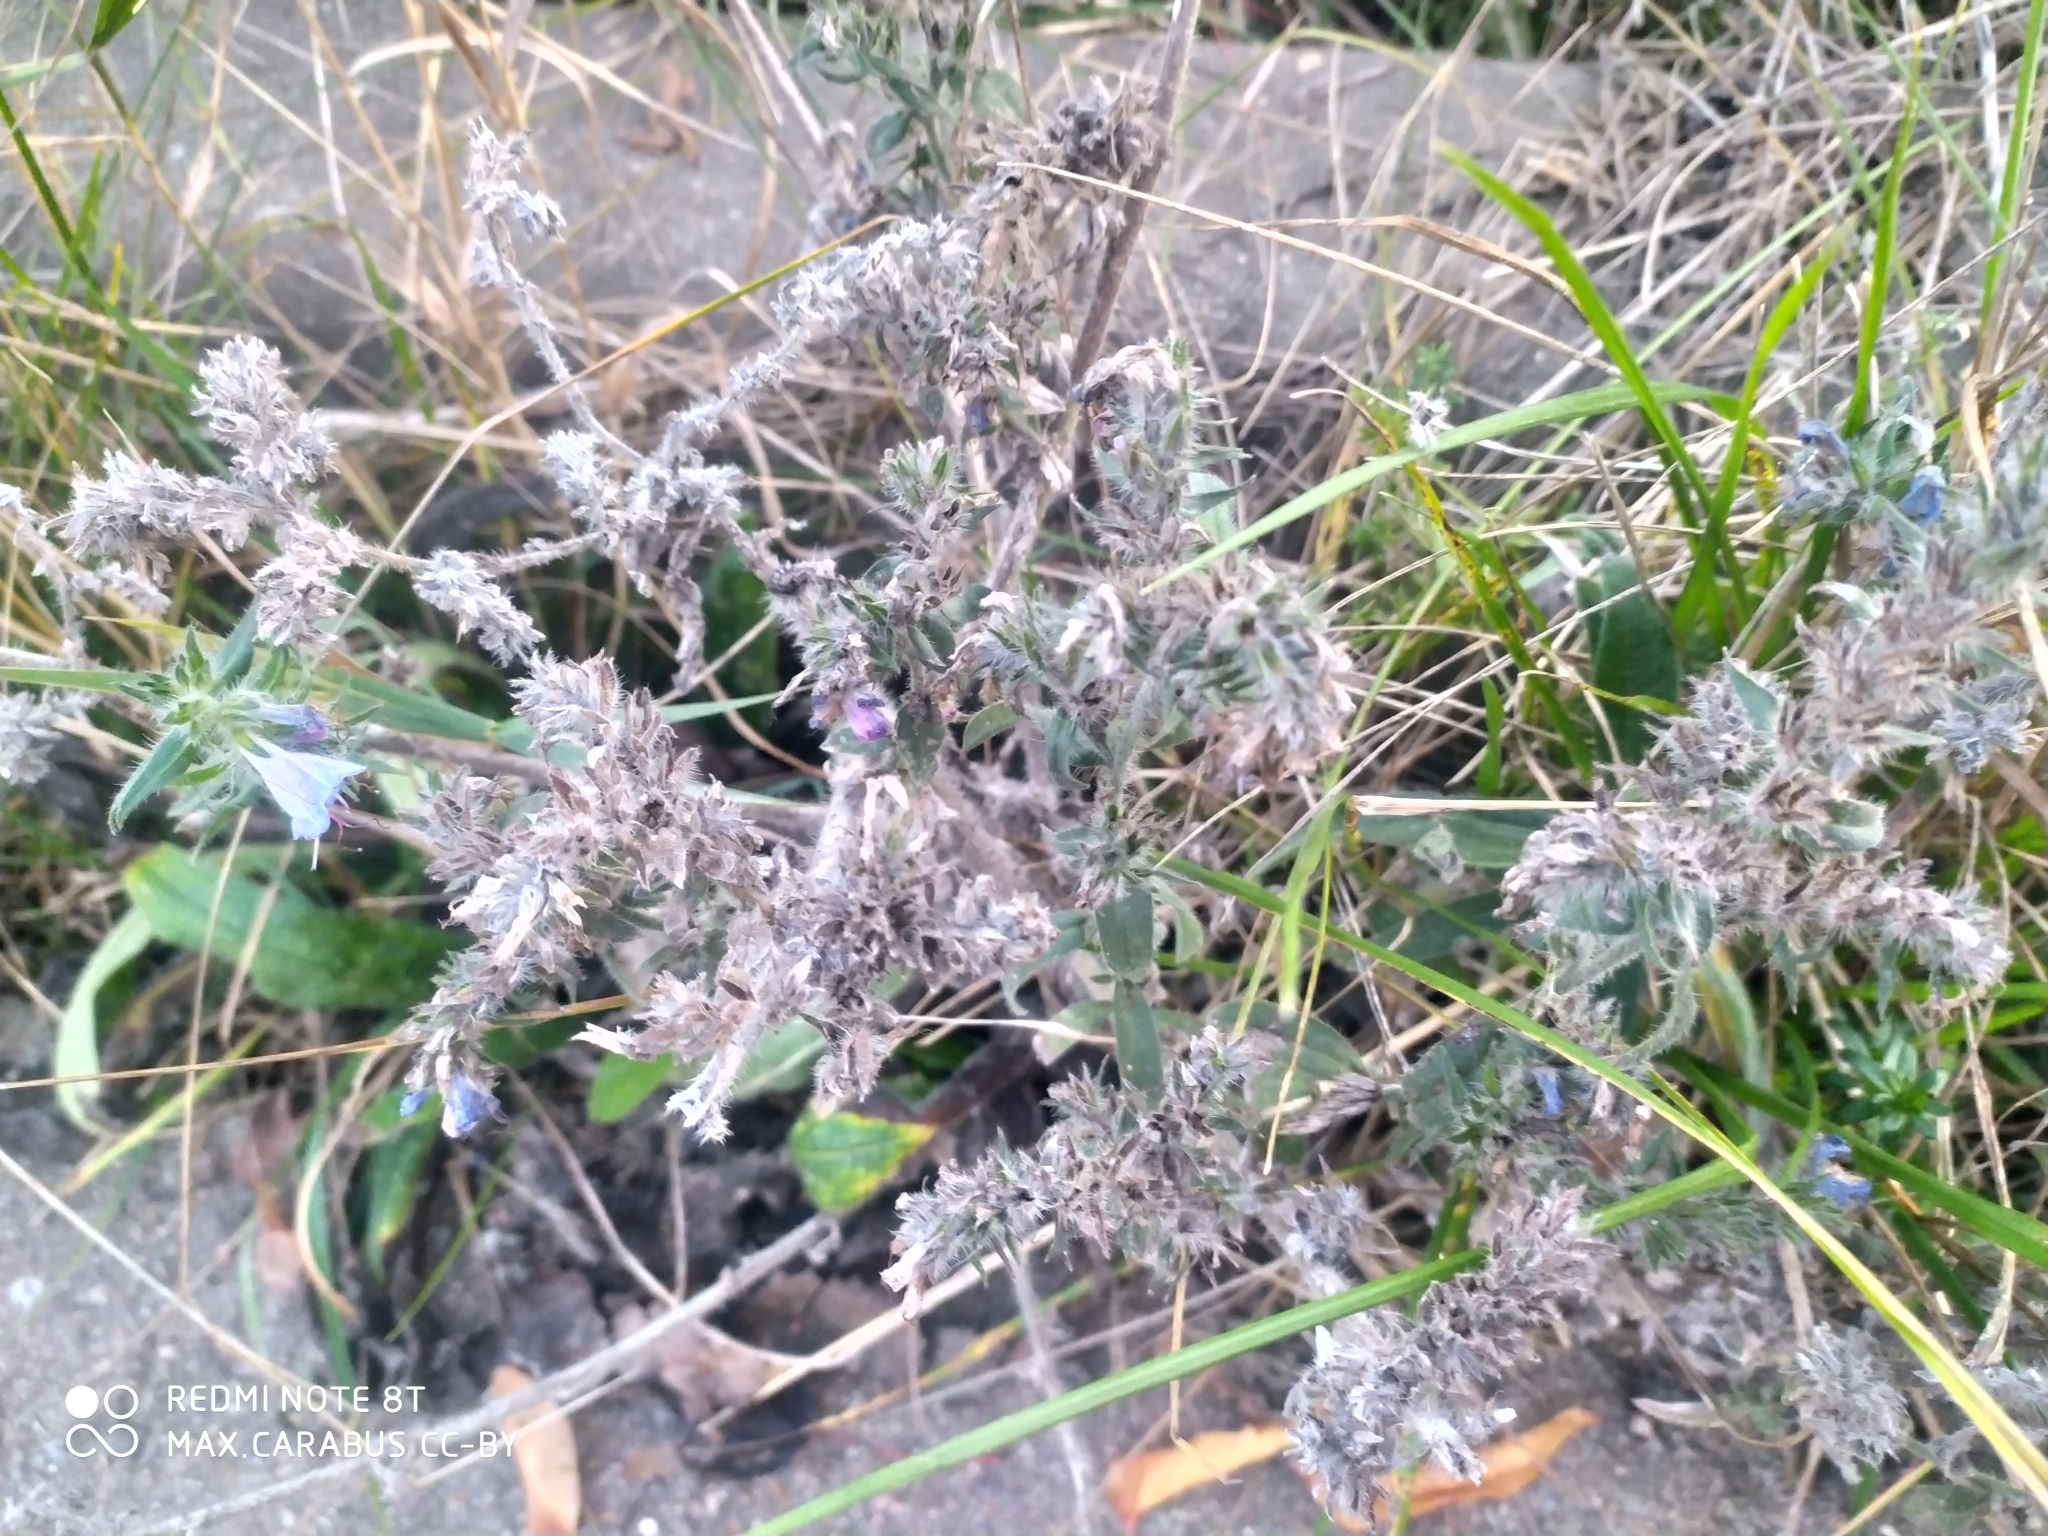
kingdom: Plantae
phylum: Tracheophyta
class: Magnoliopsida
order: Boraginales
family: Boraginaceae
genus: Echium
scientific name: Echium vulgare
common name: Common viper's bugloss
